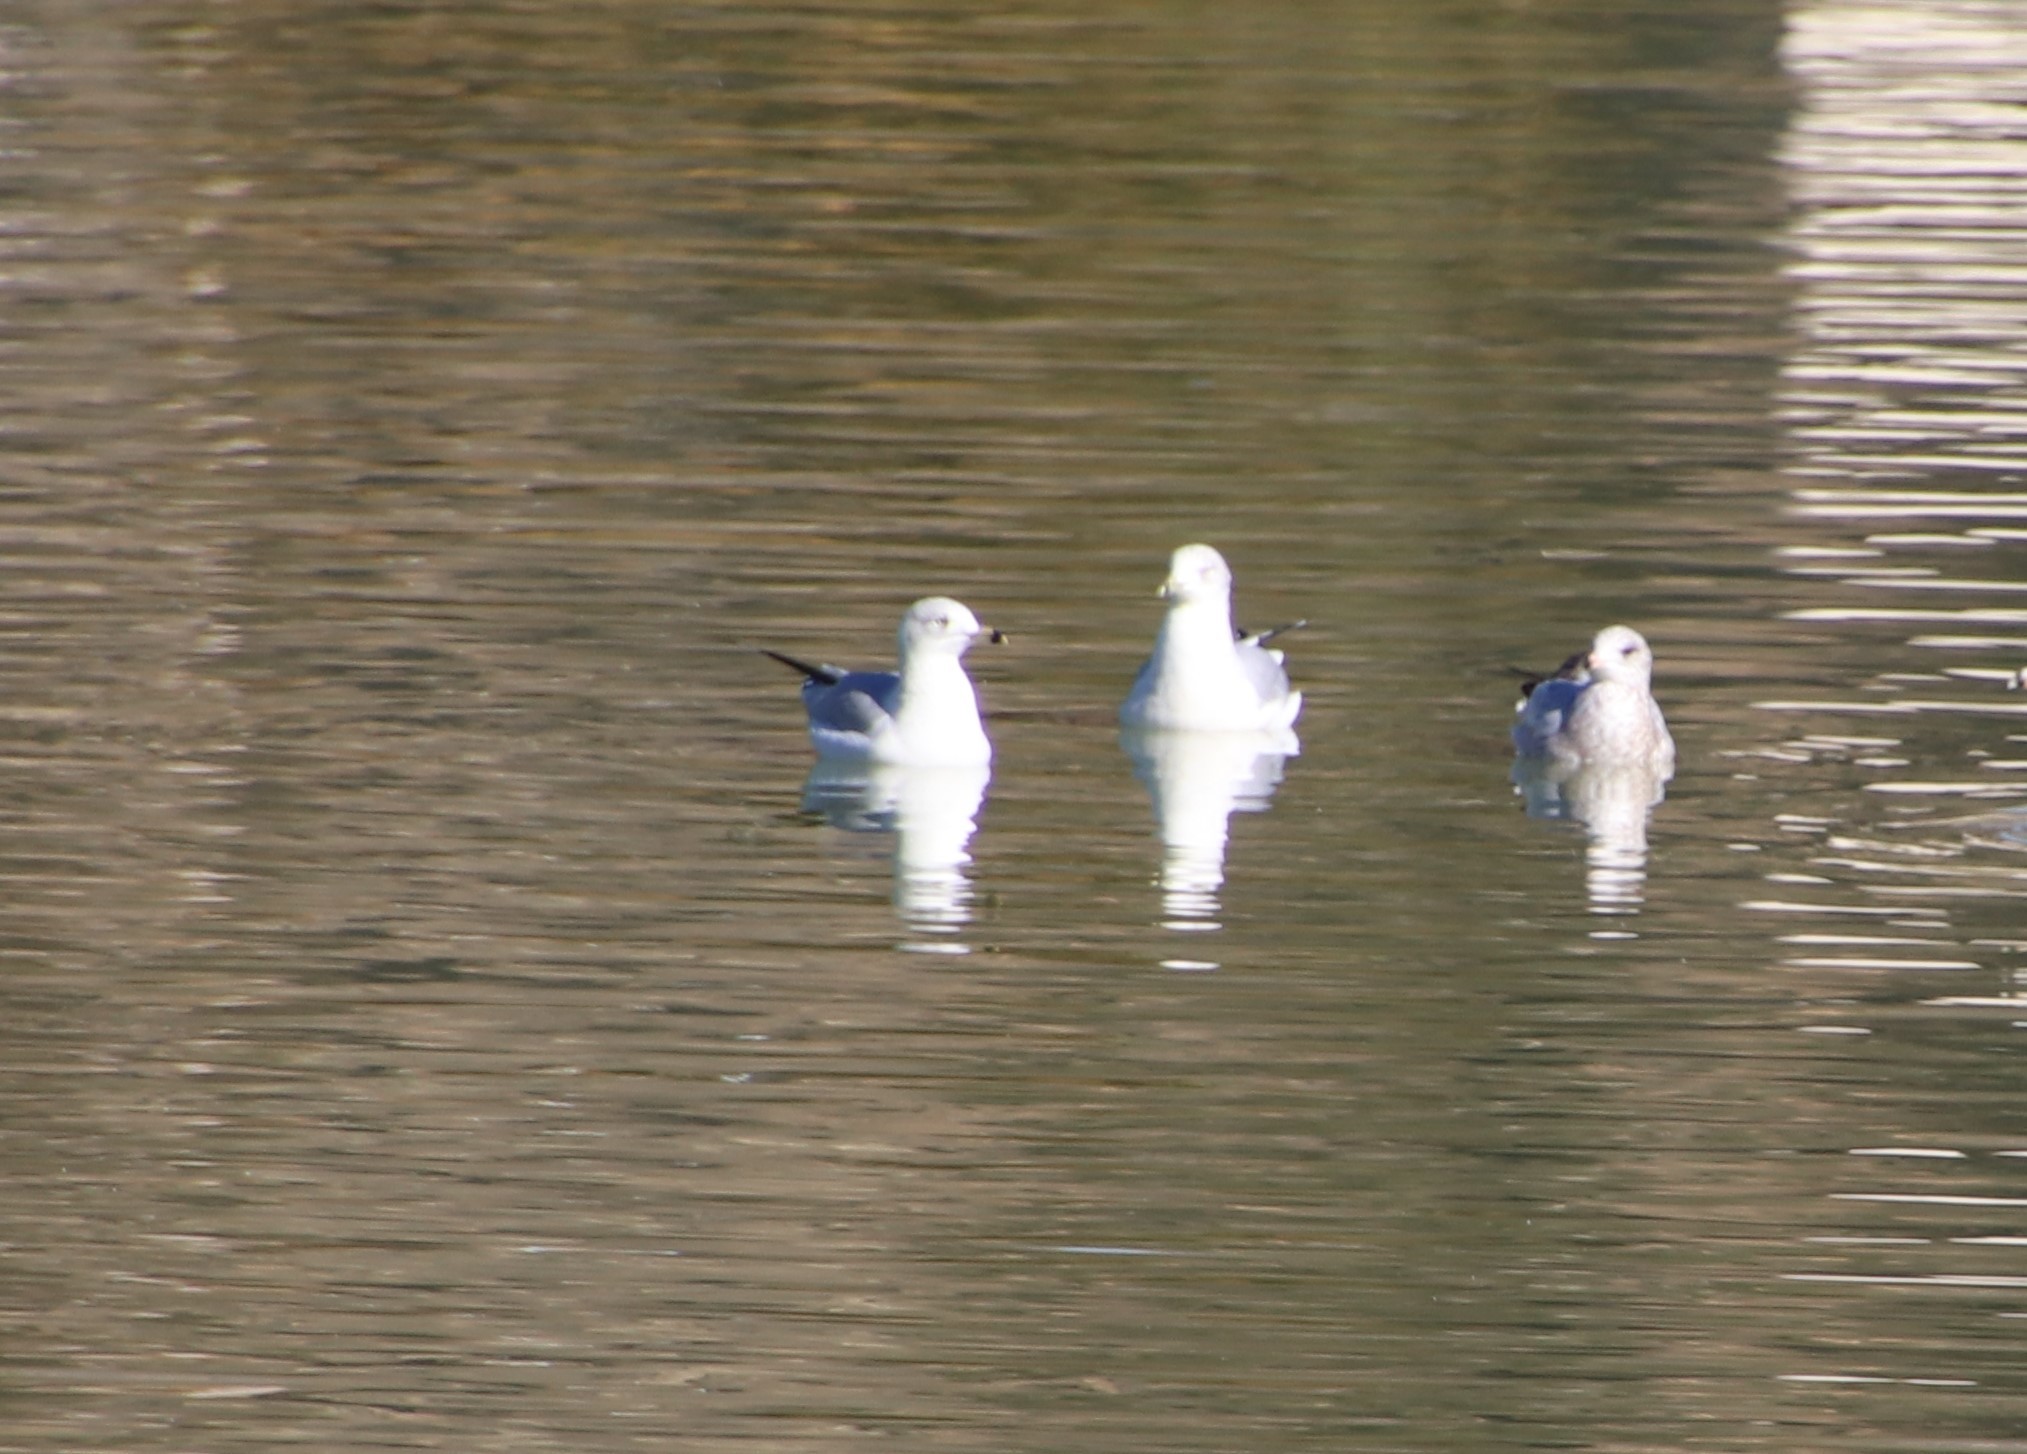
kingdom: Animalia
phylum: Chordata
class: Aves
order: Charadriiformes
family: Laridae
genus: Larus
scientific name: Larus delawarensis
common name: Ring-billed gull
